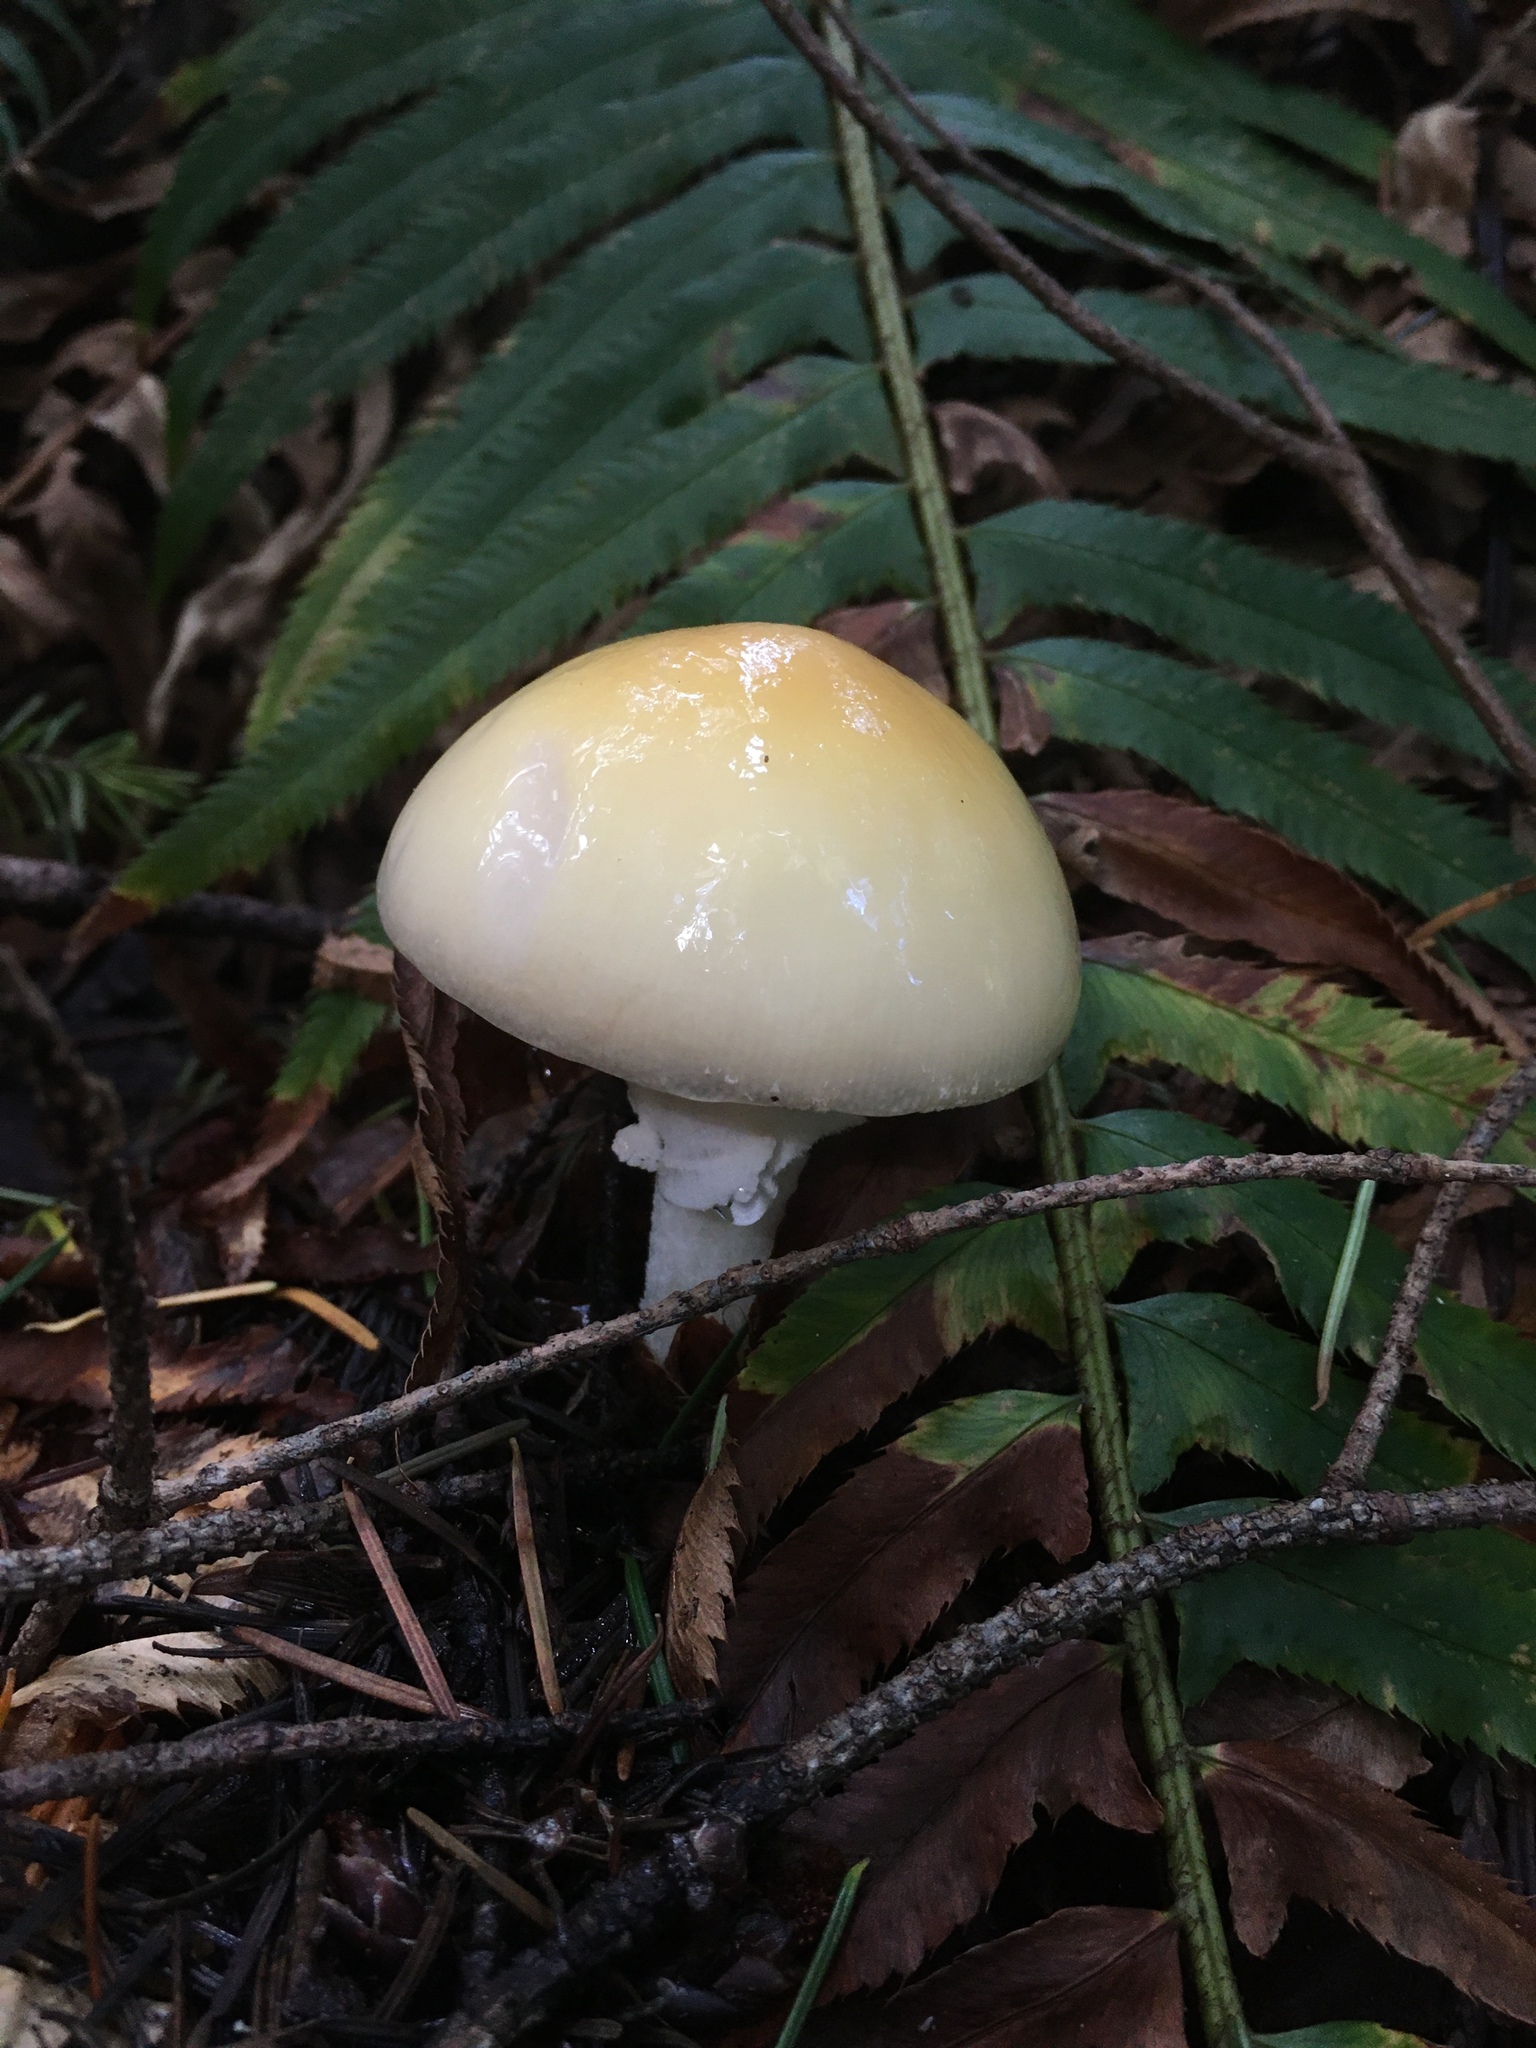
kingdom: Fungi
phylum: Basidiomycota
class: Agaricomycetes
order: Agaricales
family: Amanitaceae
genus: Amanita
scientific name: Amanita phalloides
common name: Death cap
